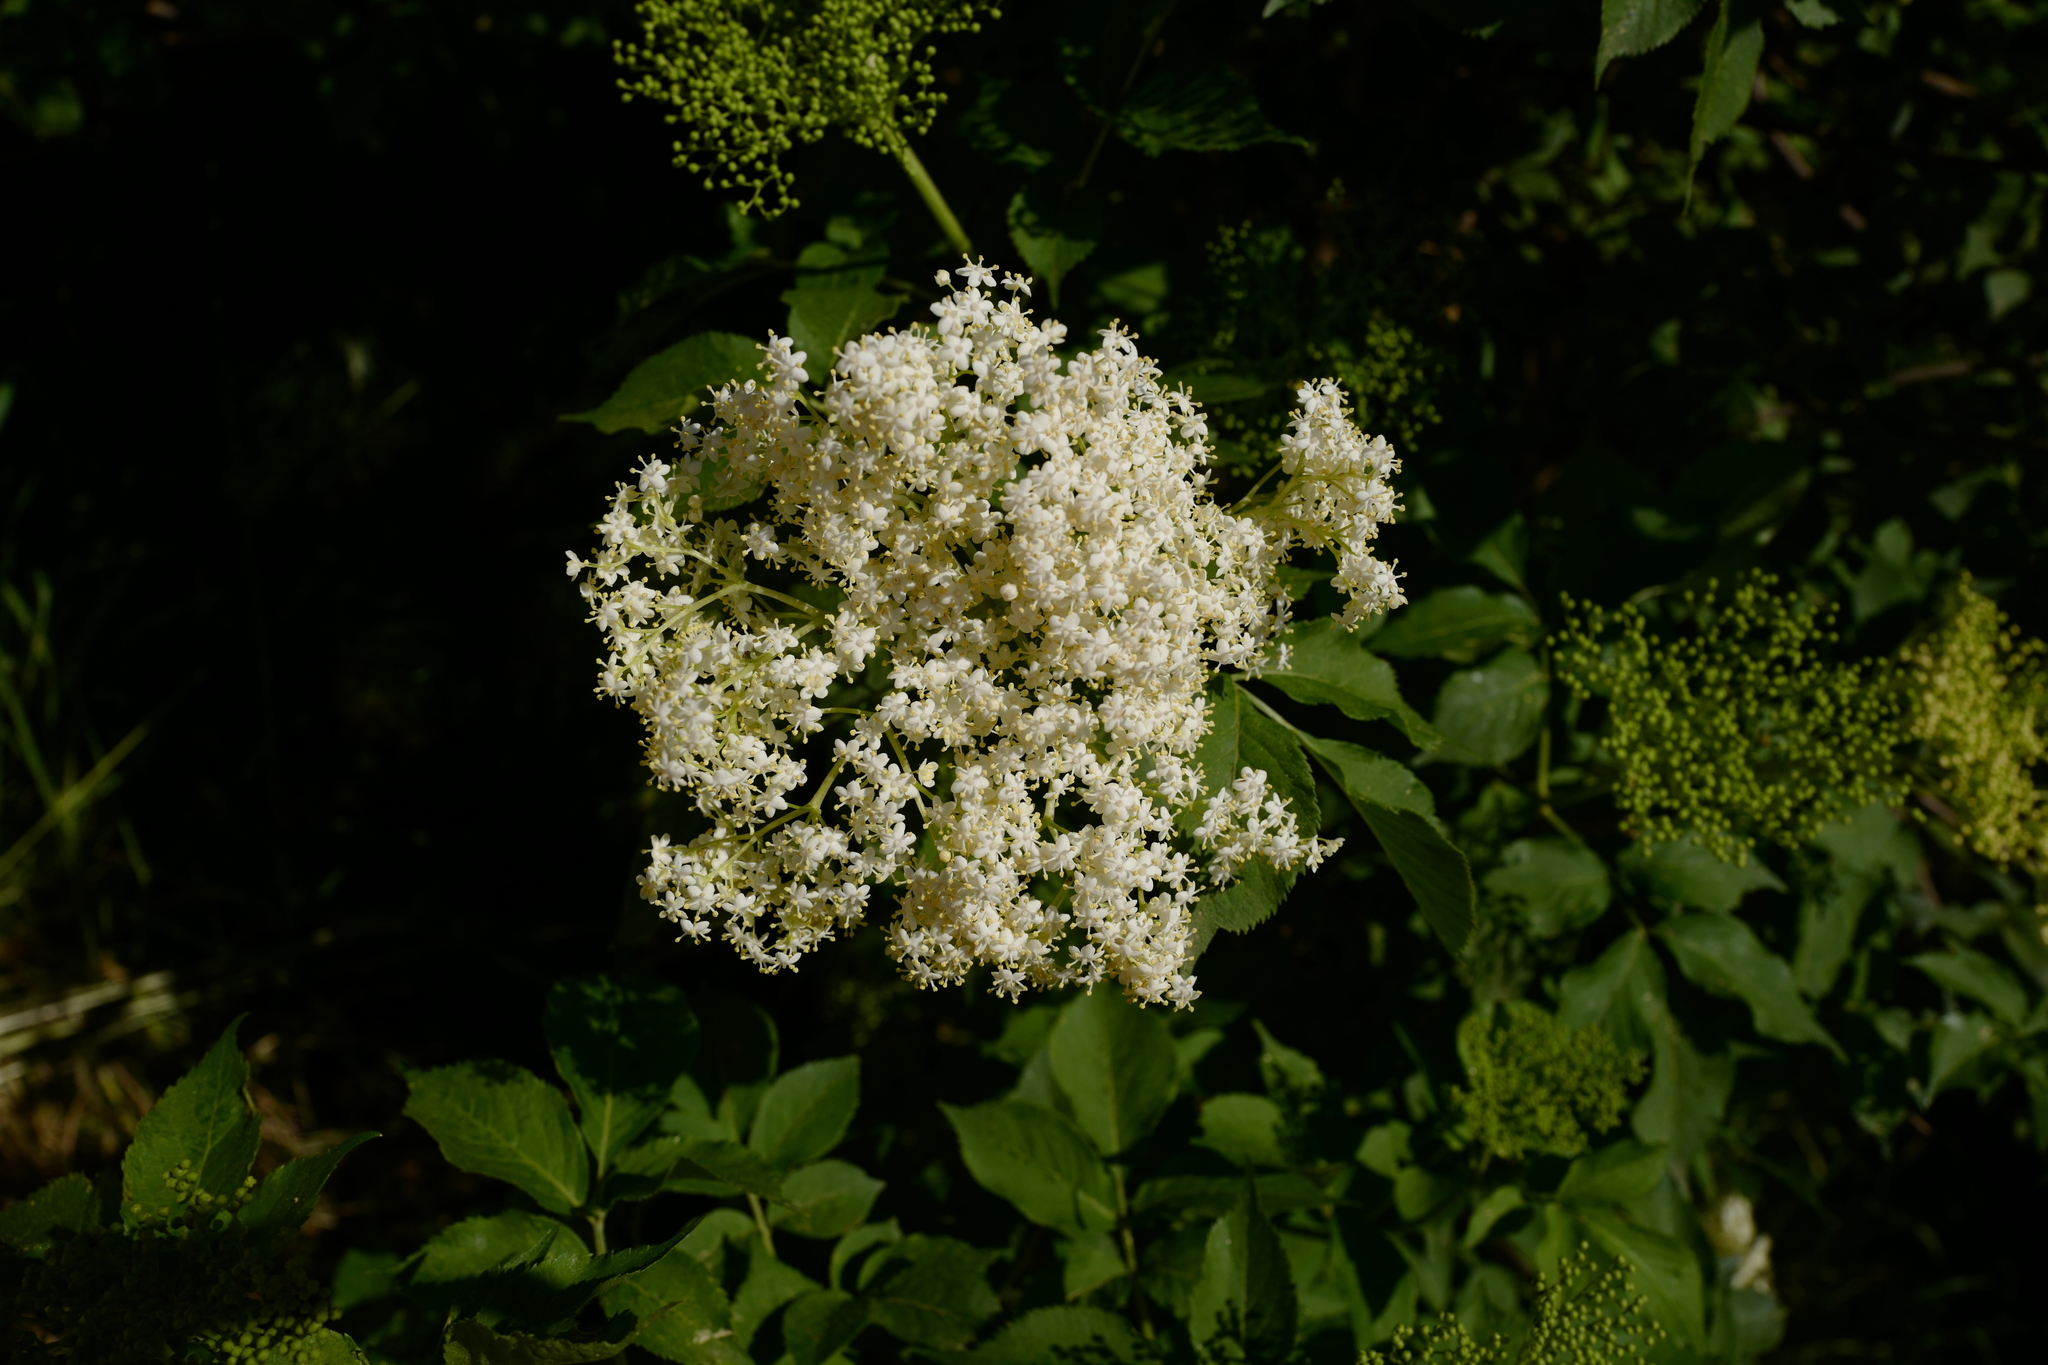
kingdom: Plantae
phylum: Tracheophyta
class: Magnoliopsida
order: Dipsacales
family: Viburnaceae
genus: Sambucus
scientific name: Sambucus nigra
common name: Elder
